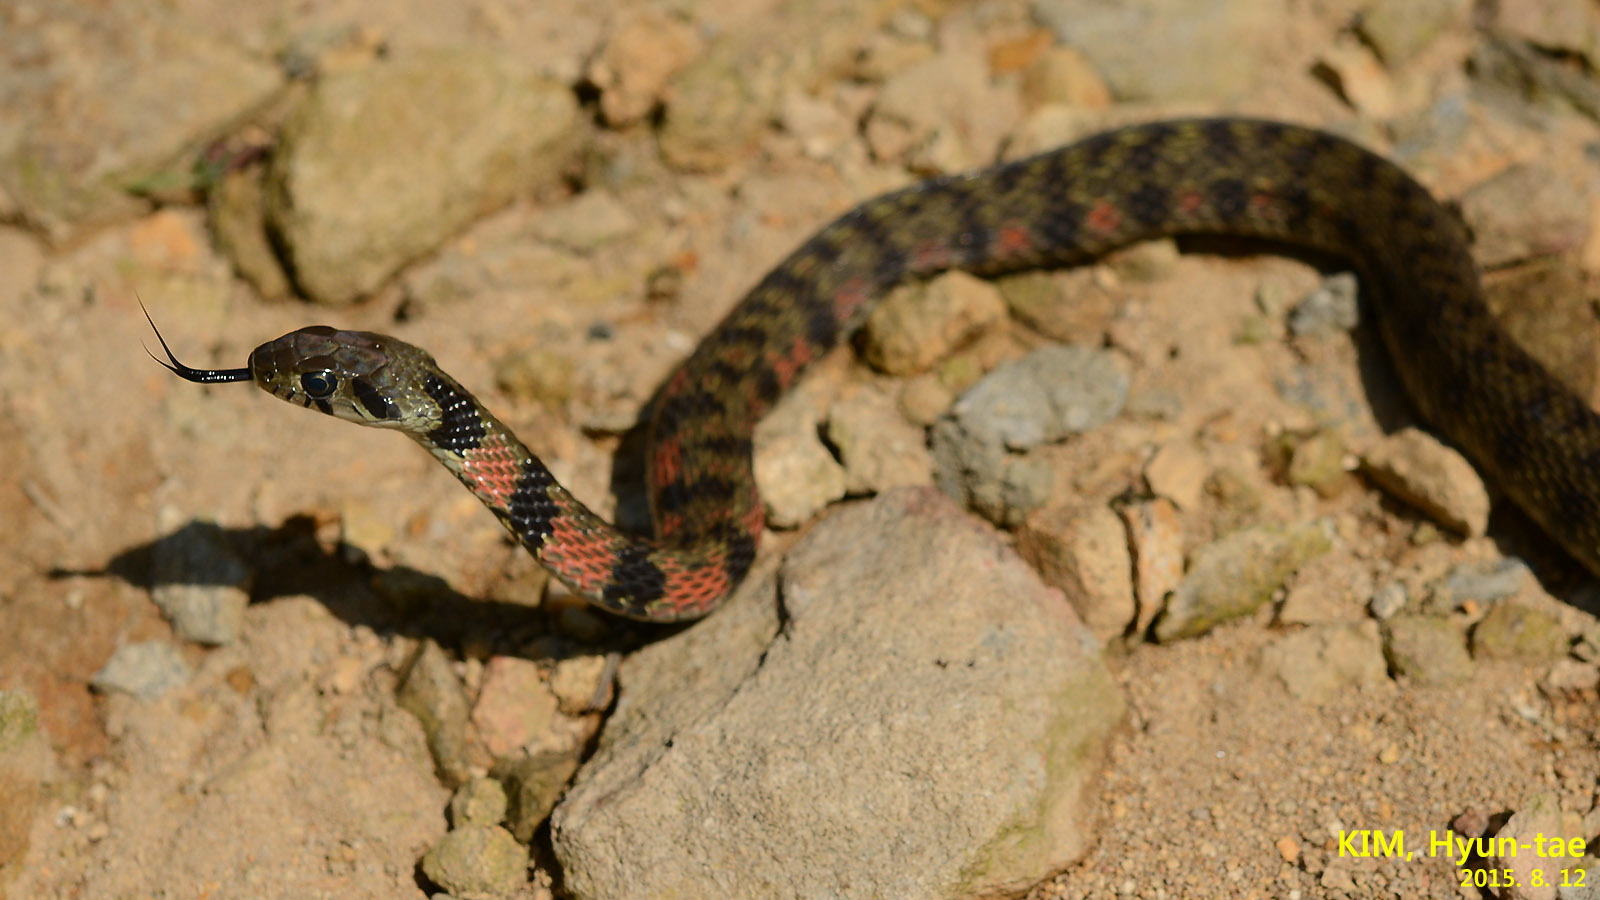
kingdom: Animalia
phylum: Chordata
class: Squamata
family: Colubridae
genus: Rhabdophis
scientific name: Rhabdophis tigrinus
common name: Tiger keelback
